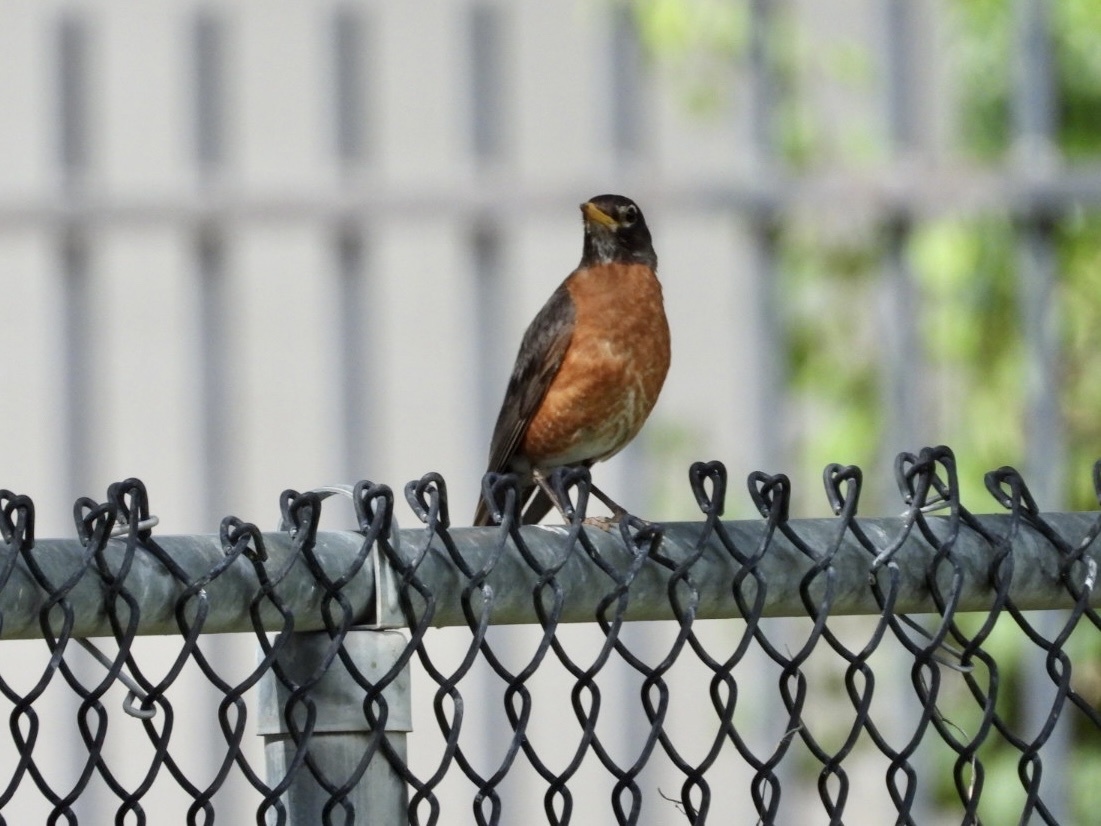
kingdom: Animalia
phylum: Chordata
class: Aves
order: Passeriformes
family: Turdidae
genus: Turdus
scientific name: Turdus migratorius
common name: American robin
